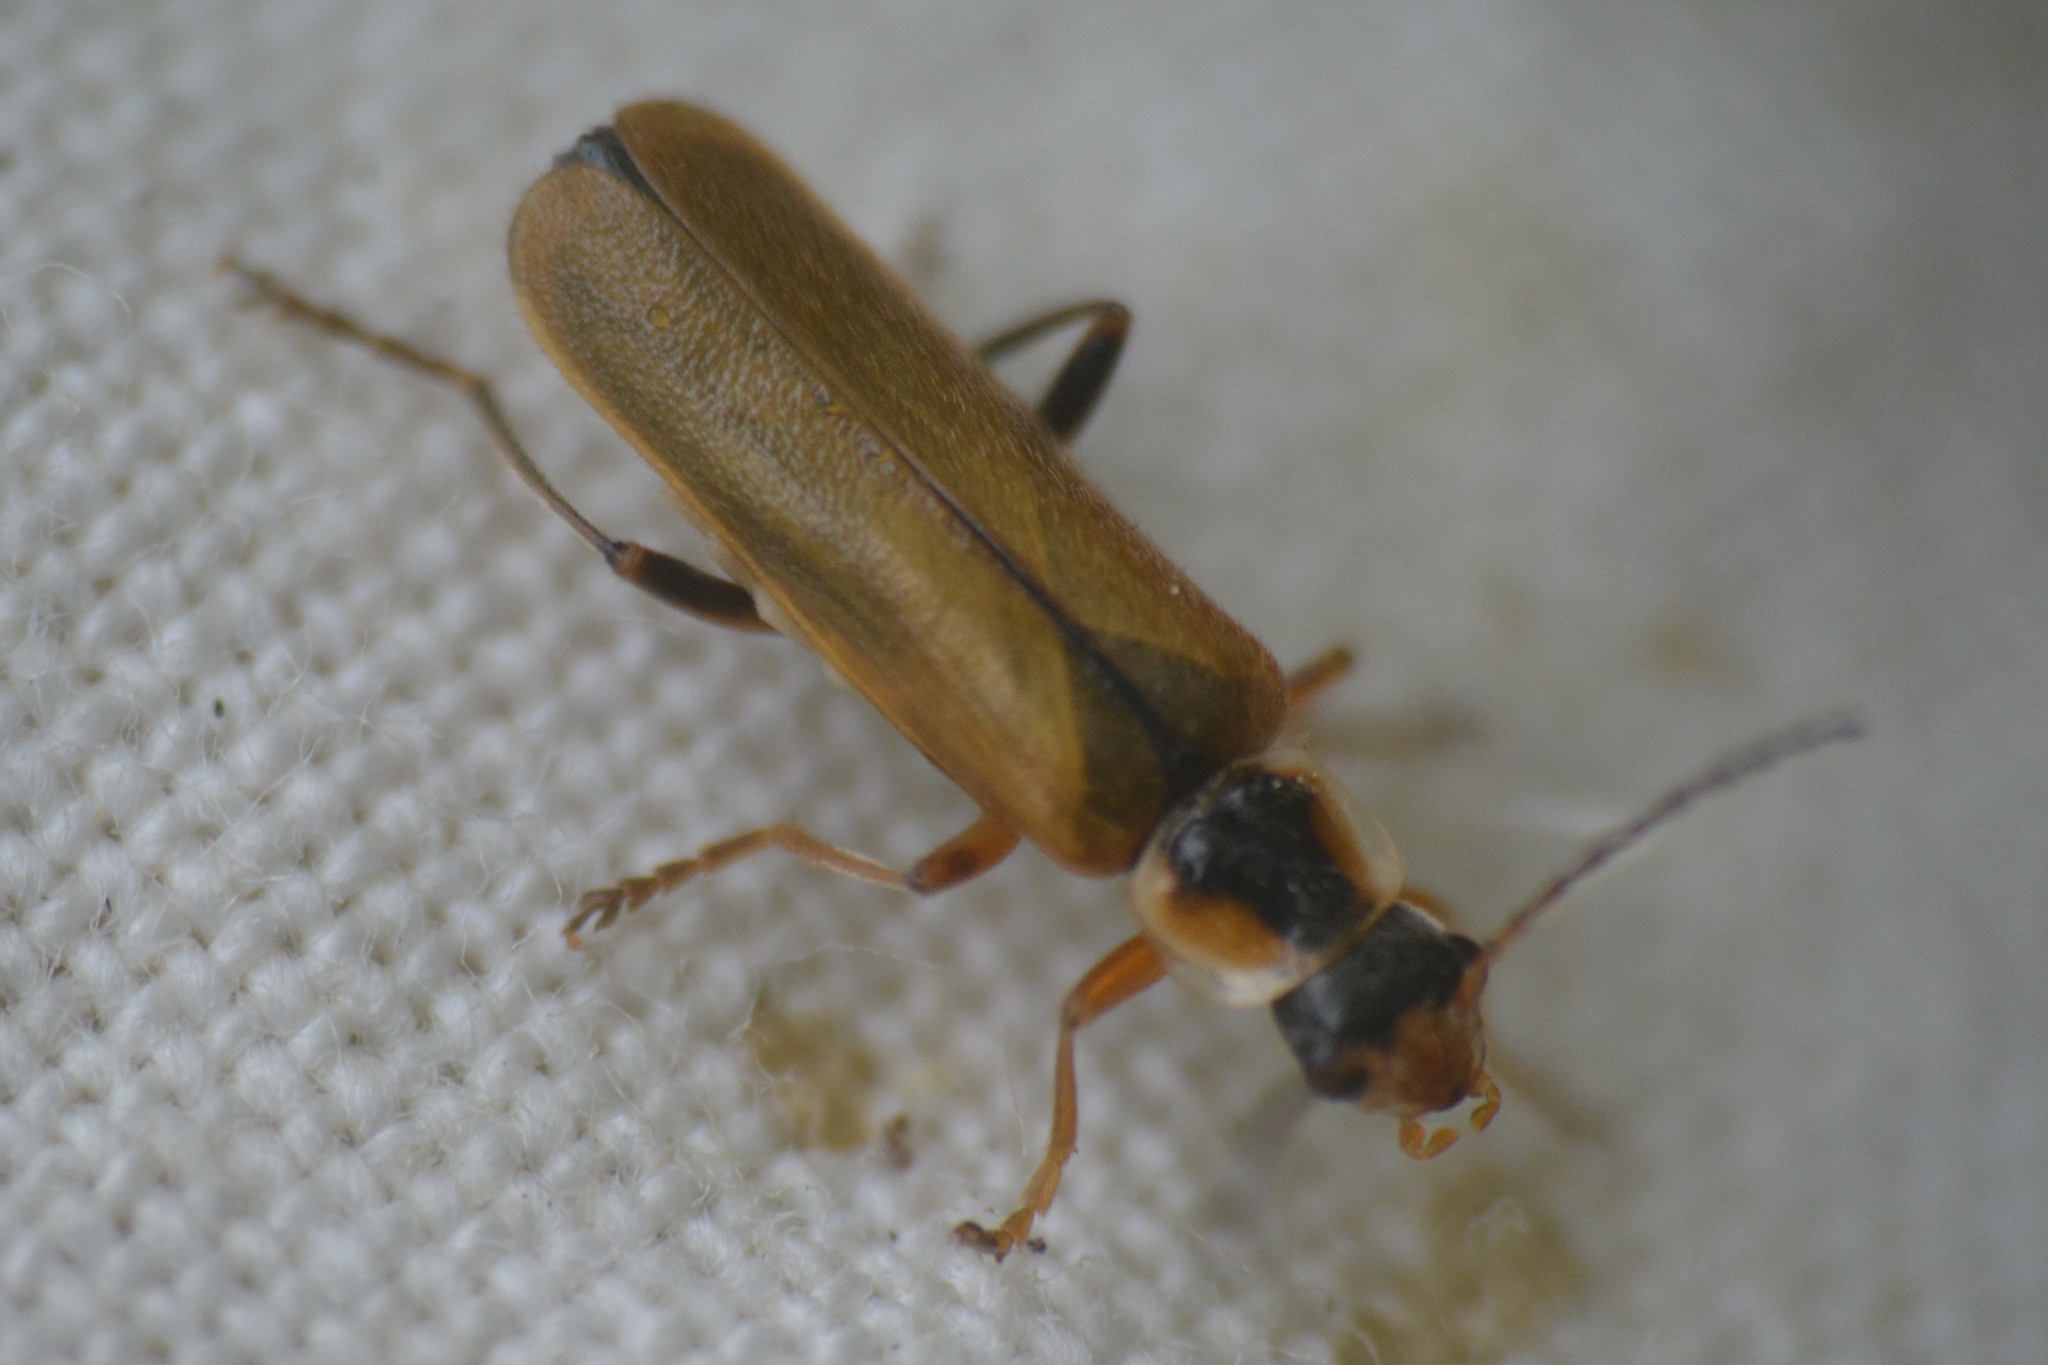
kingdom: Animalia
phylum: Arthropoda
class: Insecta
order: Coleoptera
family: Cantharidae
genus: Cantharis
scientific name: Cantharis decipiens
